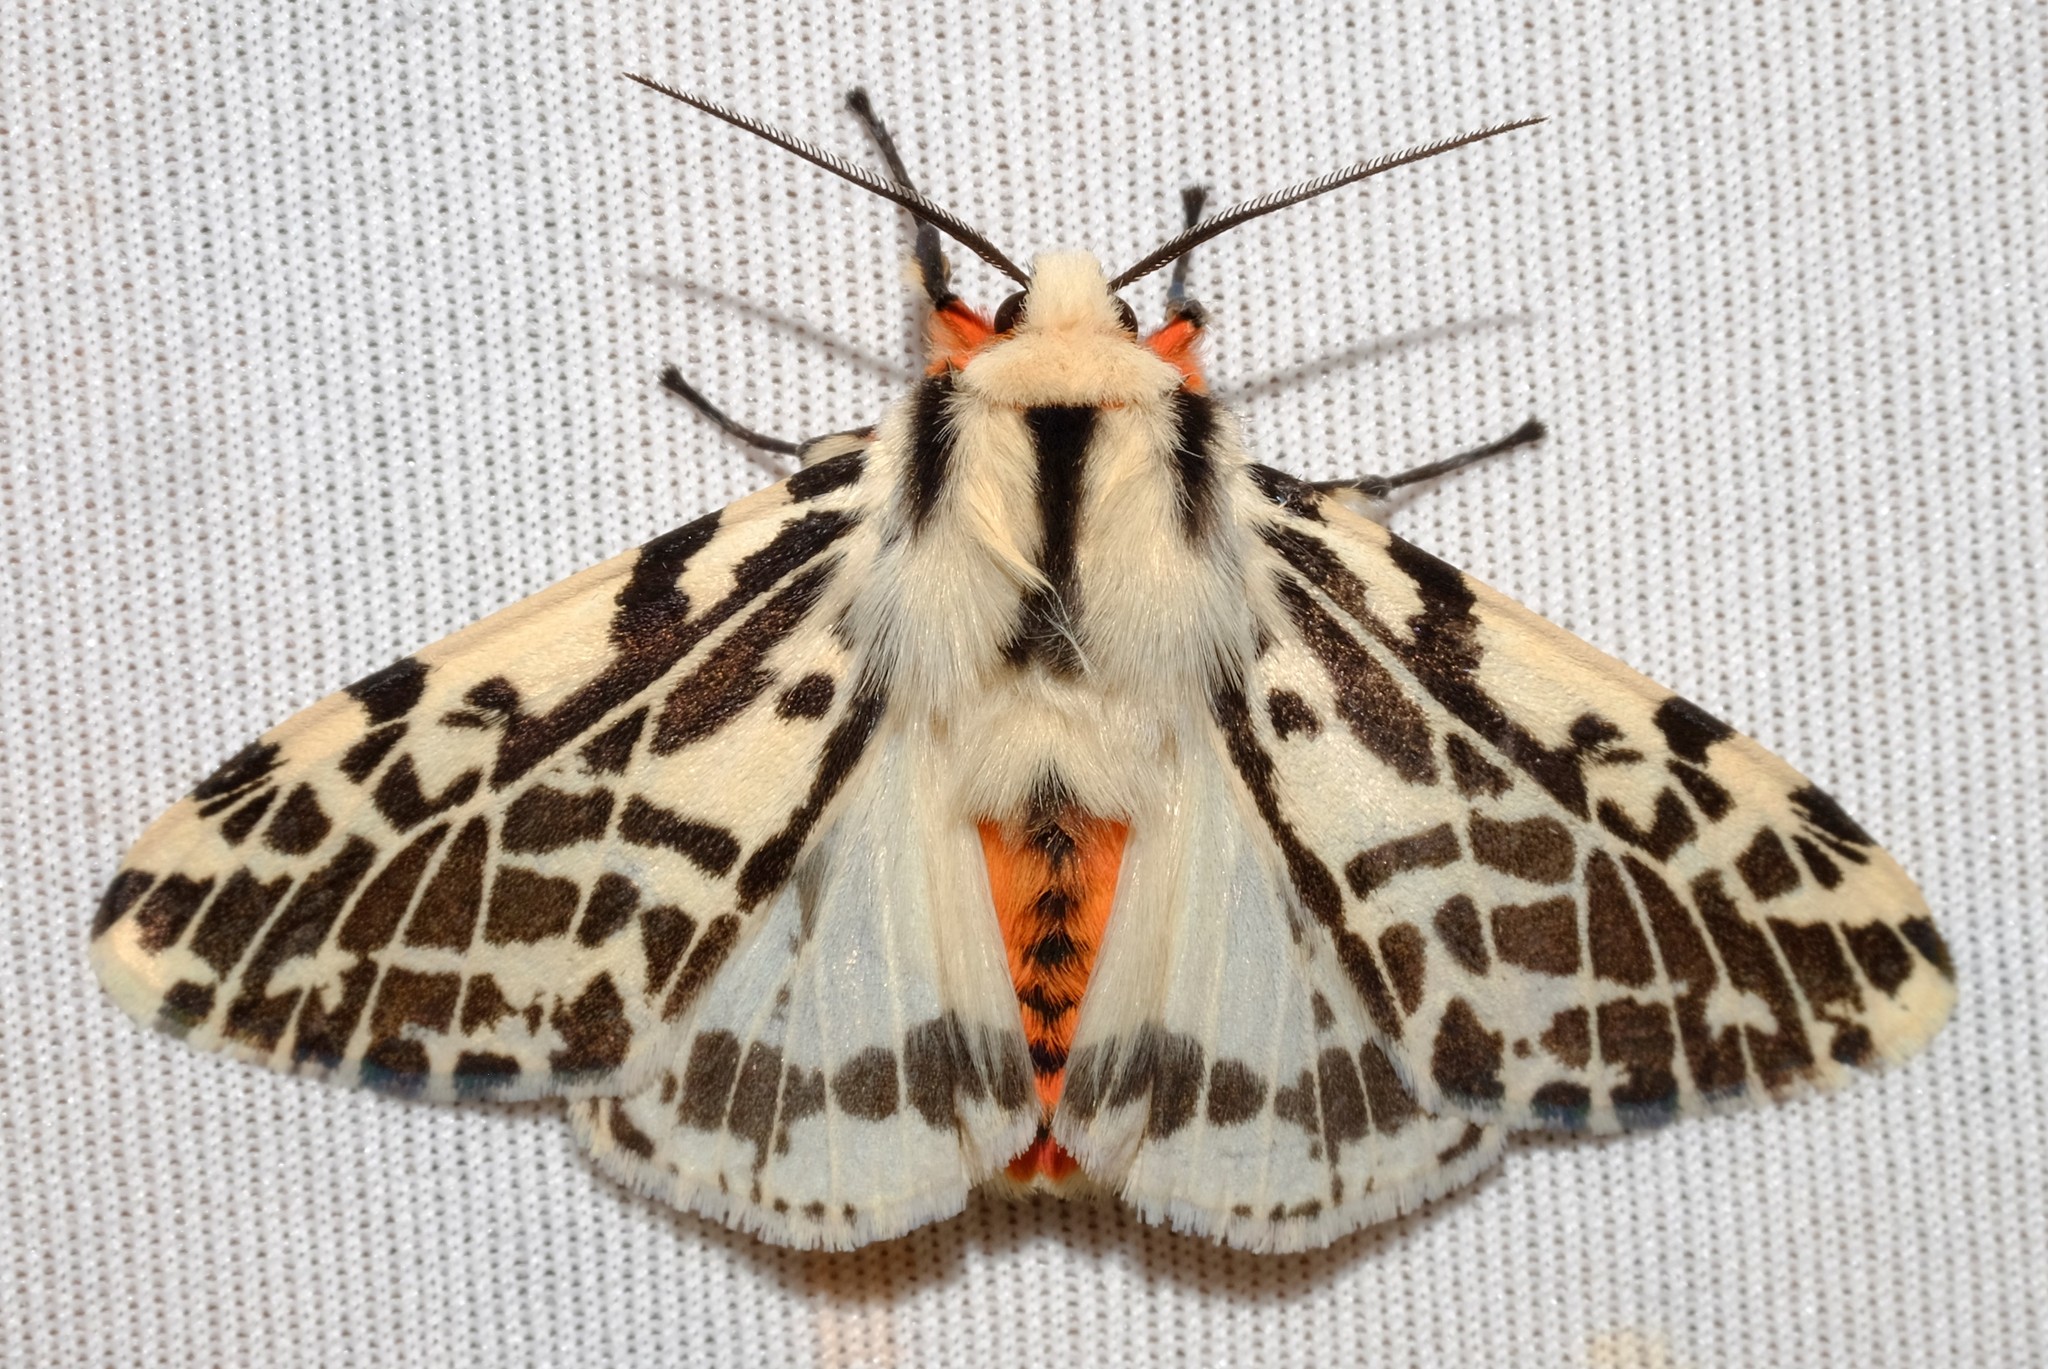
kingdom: Animalia
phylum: Arthropoda
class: Insecta
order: Lepidoptera
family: Erebidae
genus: Ardices
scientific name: Ardices glatignyi
